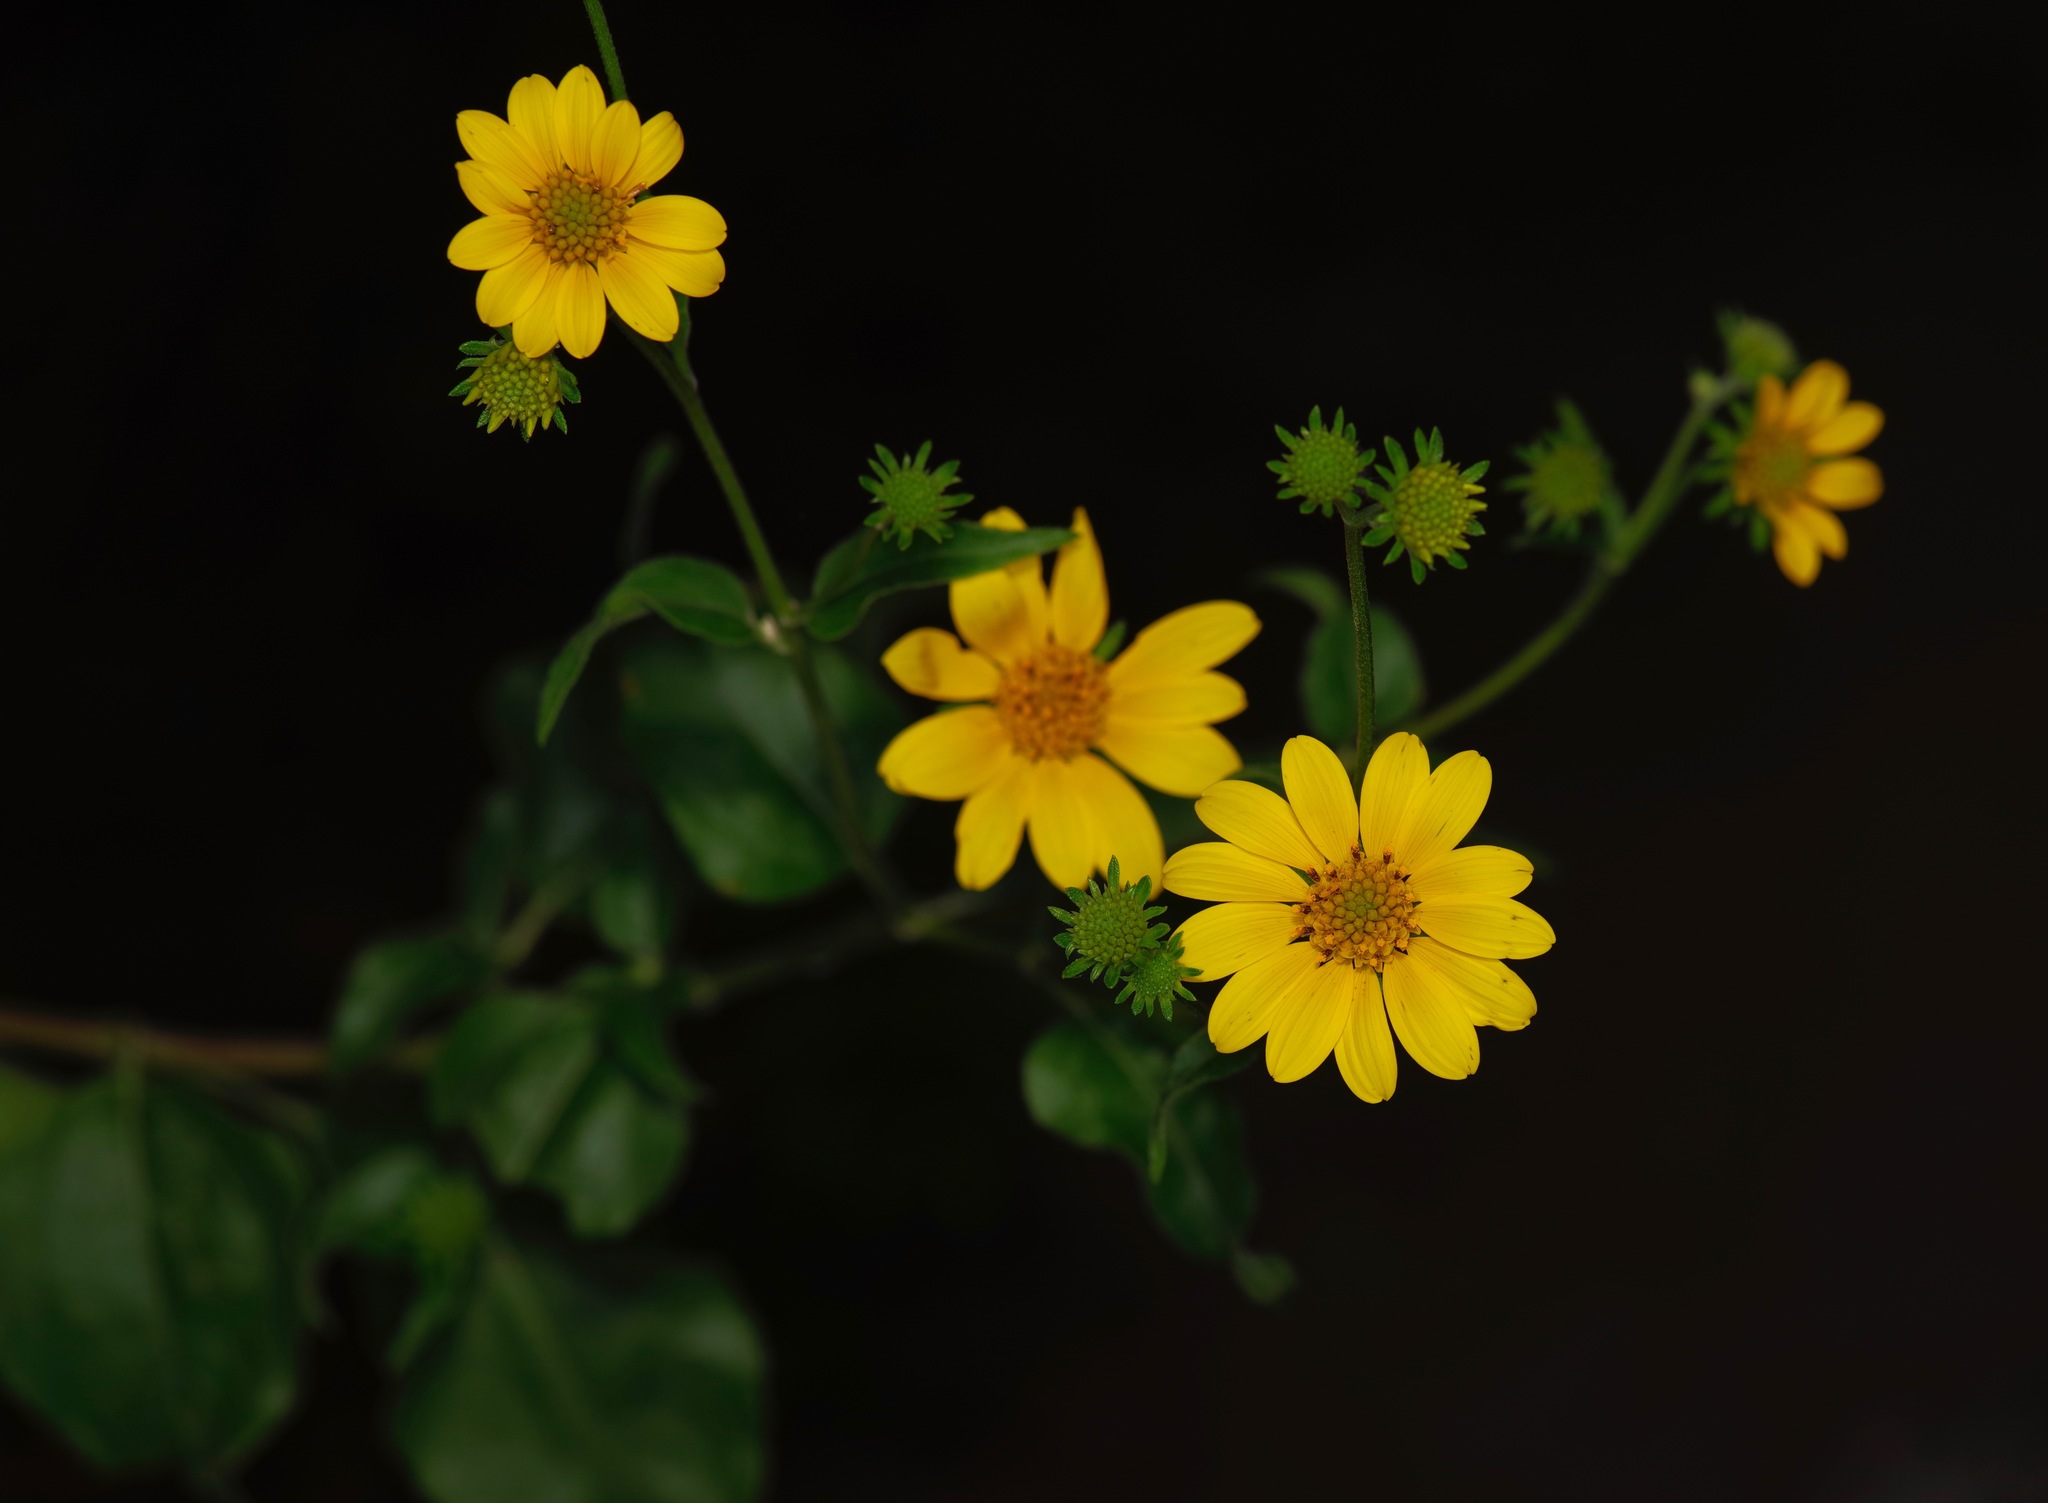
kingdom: Plantae
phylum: Tracheophyta
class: Magnoliopsida
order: Asterales
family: Asteraceae
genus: Viguiera
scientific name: Viguiera dentata
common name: Toothleaf
